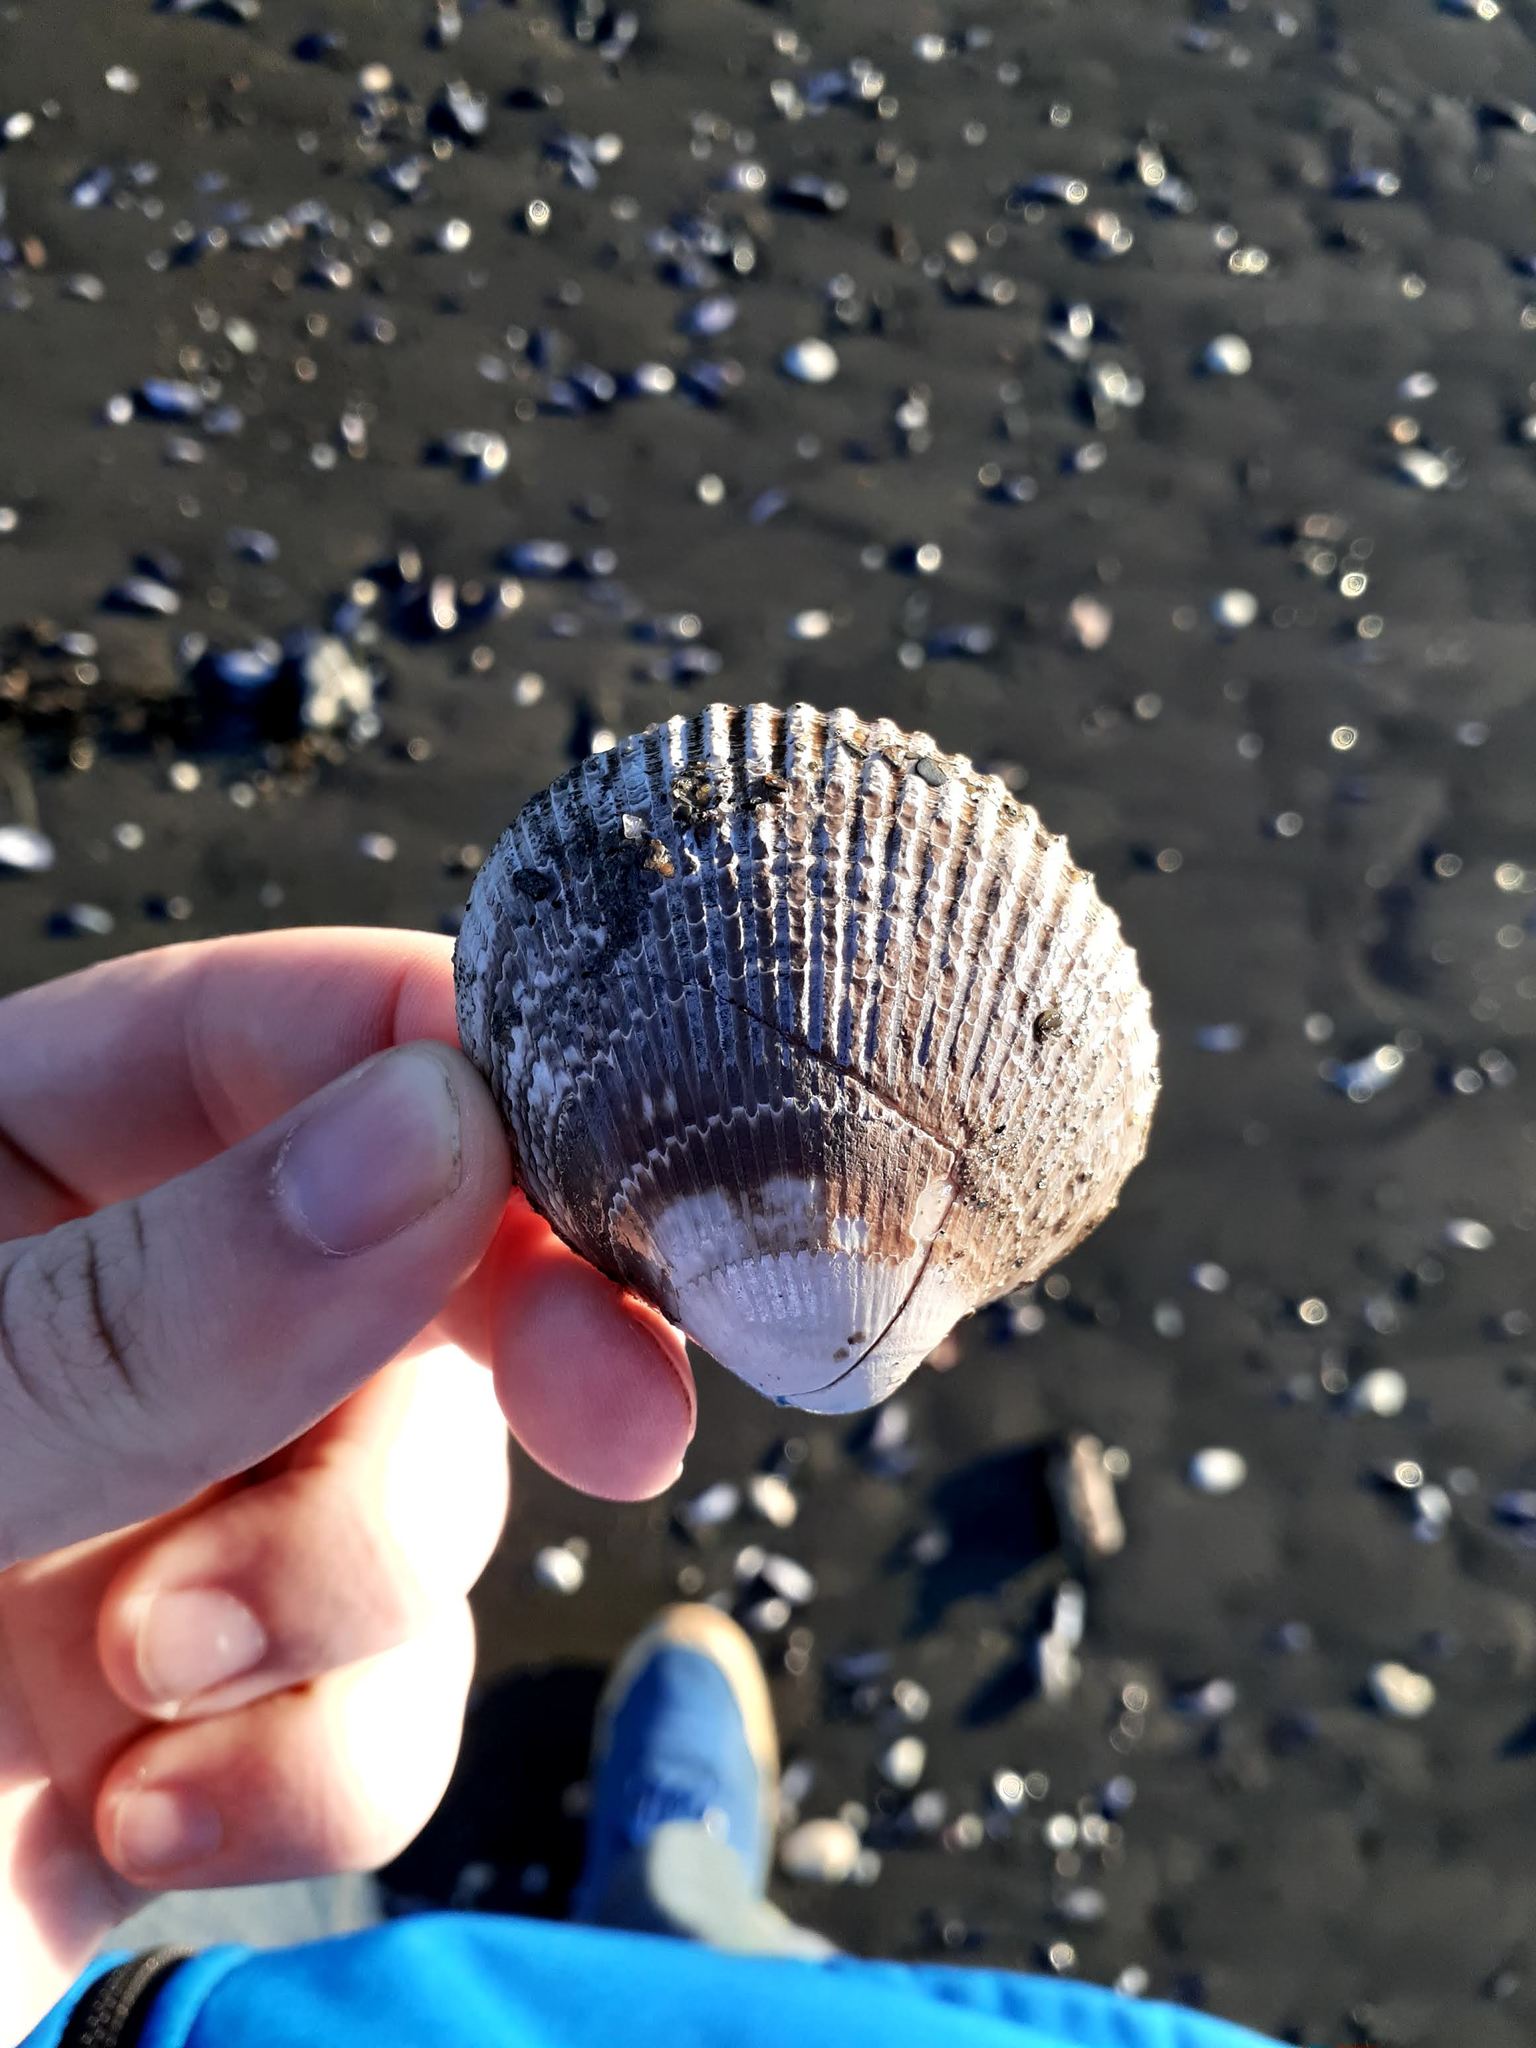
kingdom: Animalia
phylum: Mollusca
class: Bivalvia
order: Cardiida
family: Cardiidae
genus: Ciliatocardium
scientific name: Ciliatocardium ciliatum
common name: Hairy cockle
